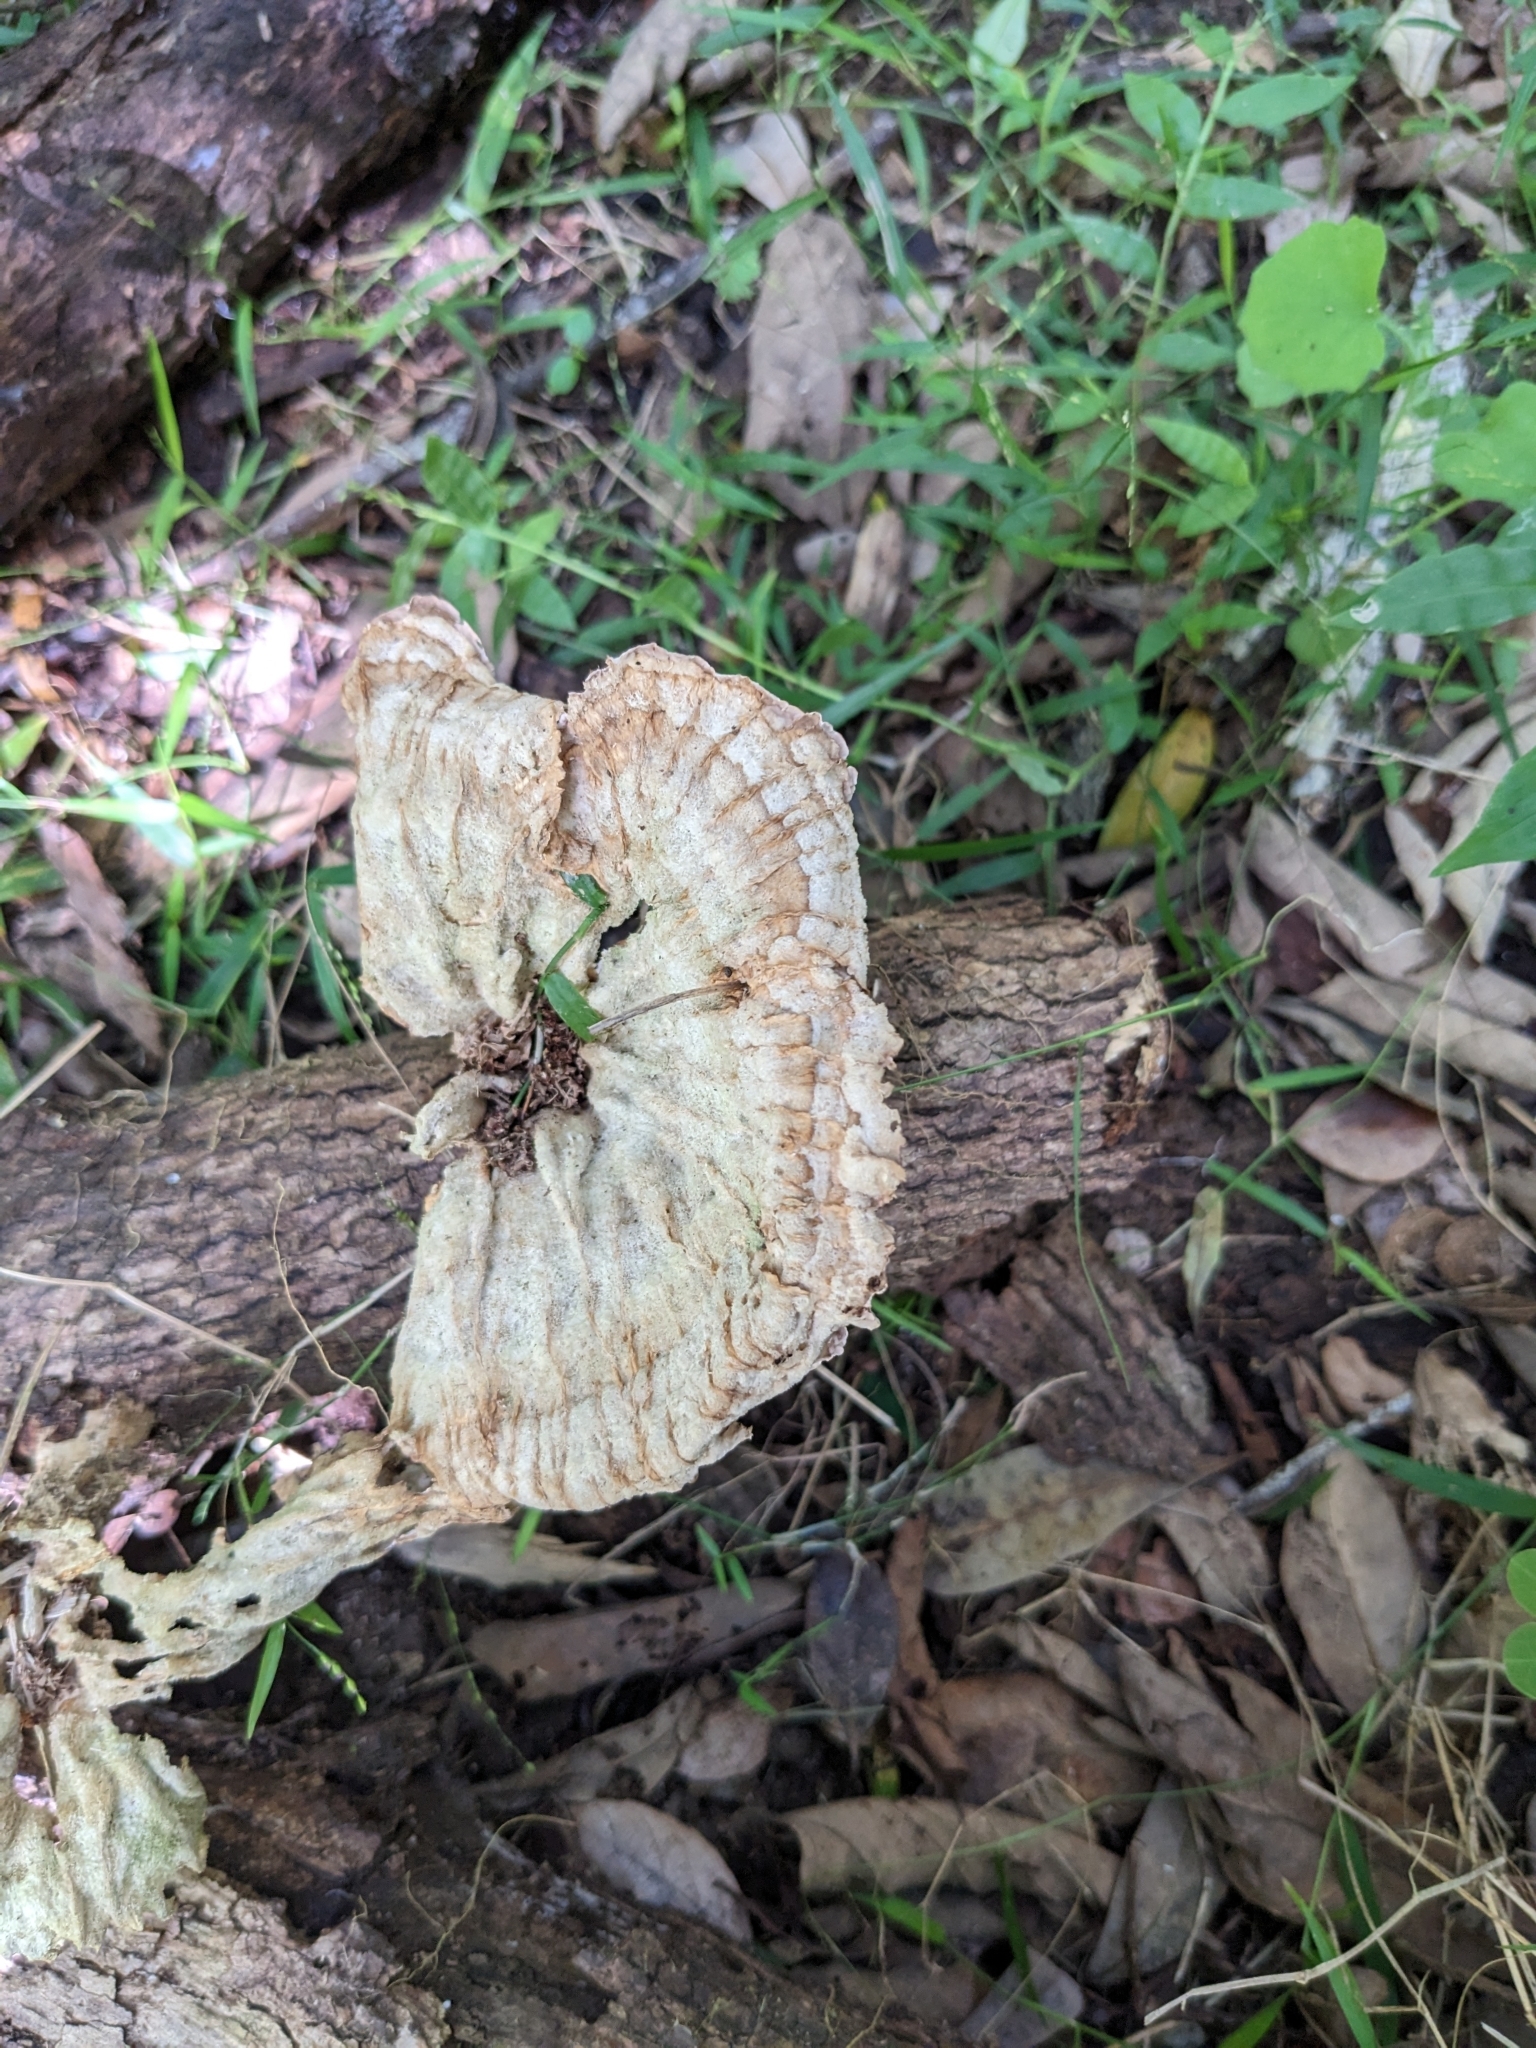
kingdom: Fungi
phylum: Basidiomycota
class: Agaricomycetes
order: Polyporales
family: Panaceae
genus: Cymatoderma
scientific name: Cymatoderma elegans
